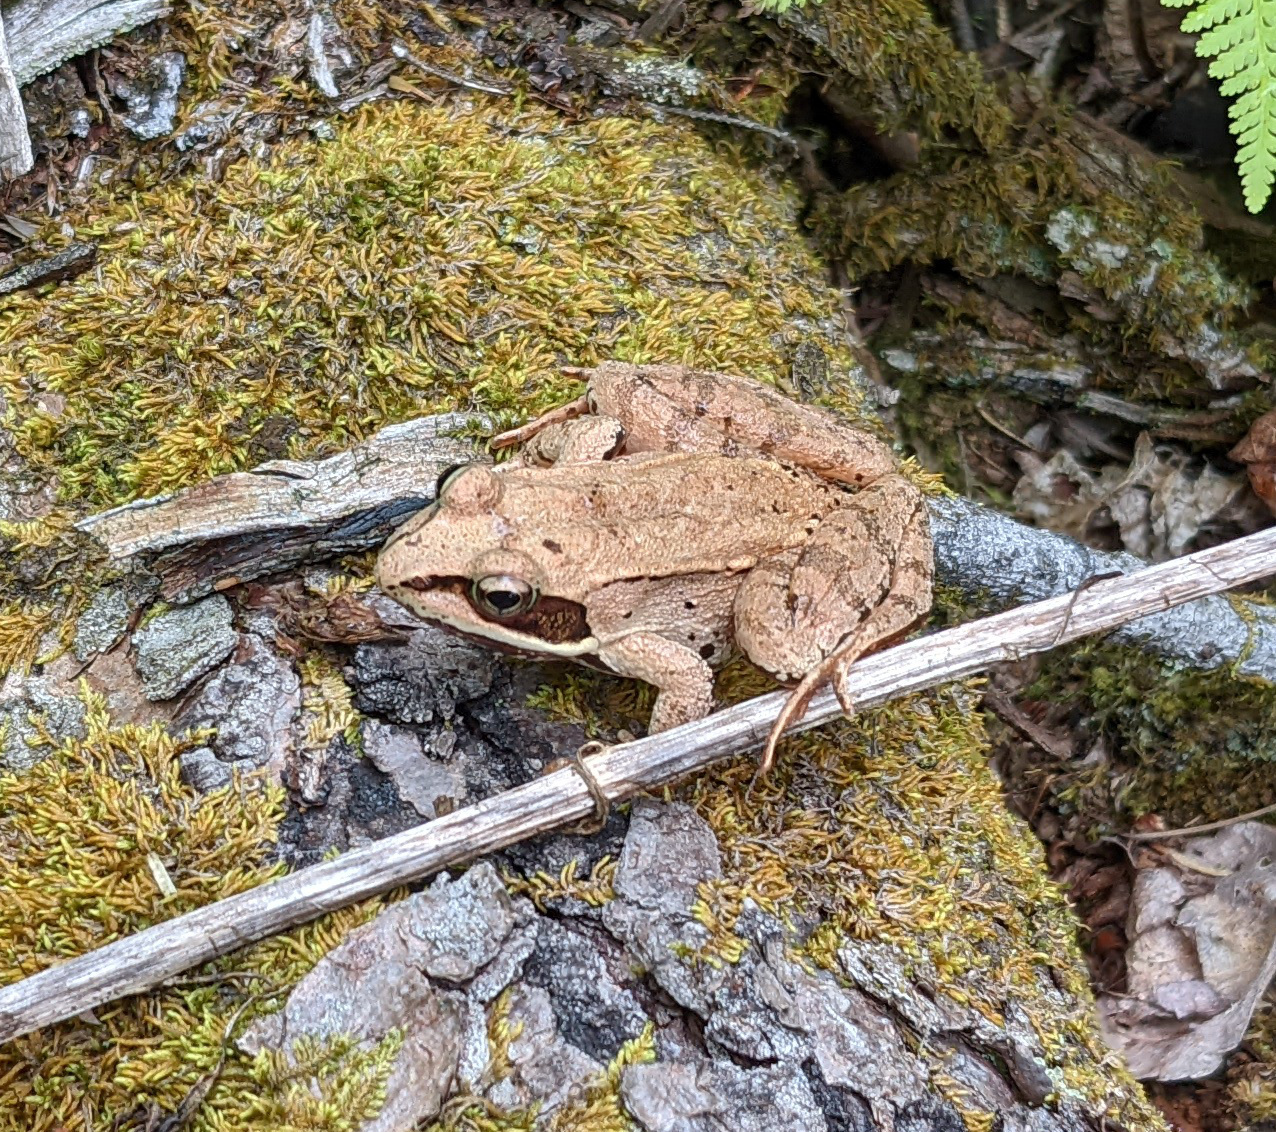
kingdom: Animalia
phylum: Chordata
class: Amphibia
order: Anura
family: Ranidae
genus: Lithobates
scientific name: Lithobates sylvaticus
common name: Wood frog
